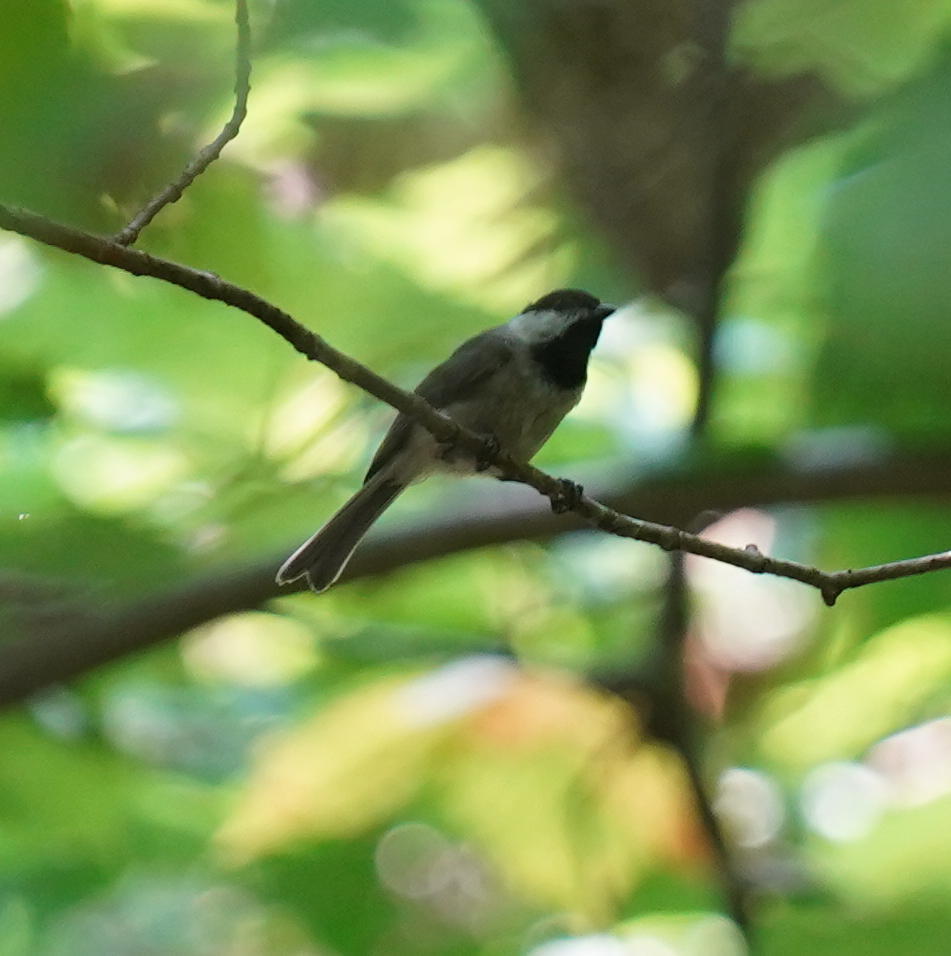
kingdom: Animalia
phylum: Chordata
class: Aves
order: Passeriformes
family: Paridae
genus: Poecile
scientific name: Poecile carolinensis
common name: Carolina chickadee
